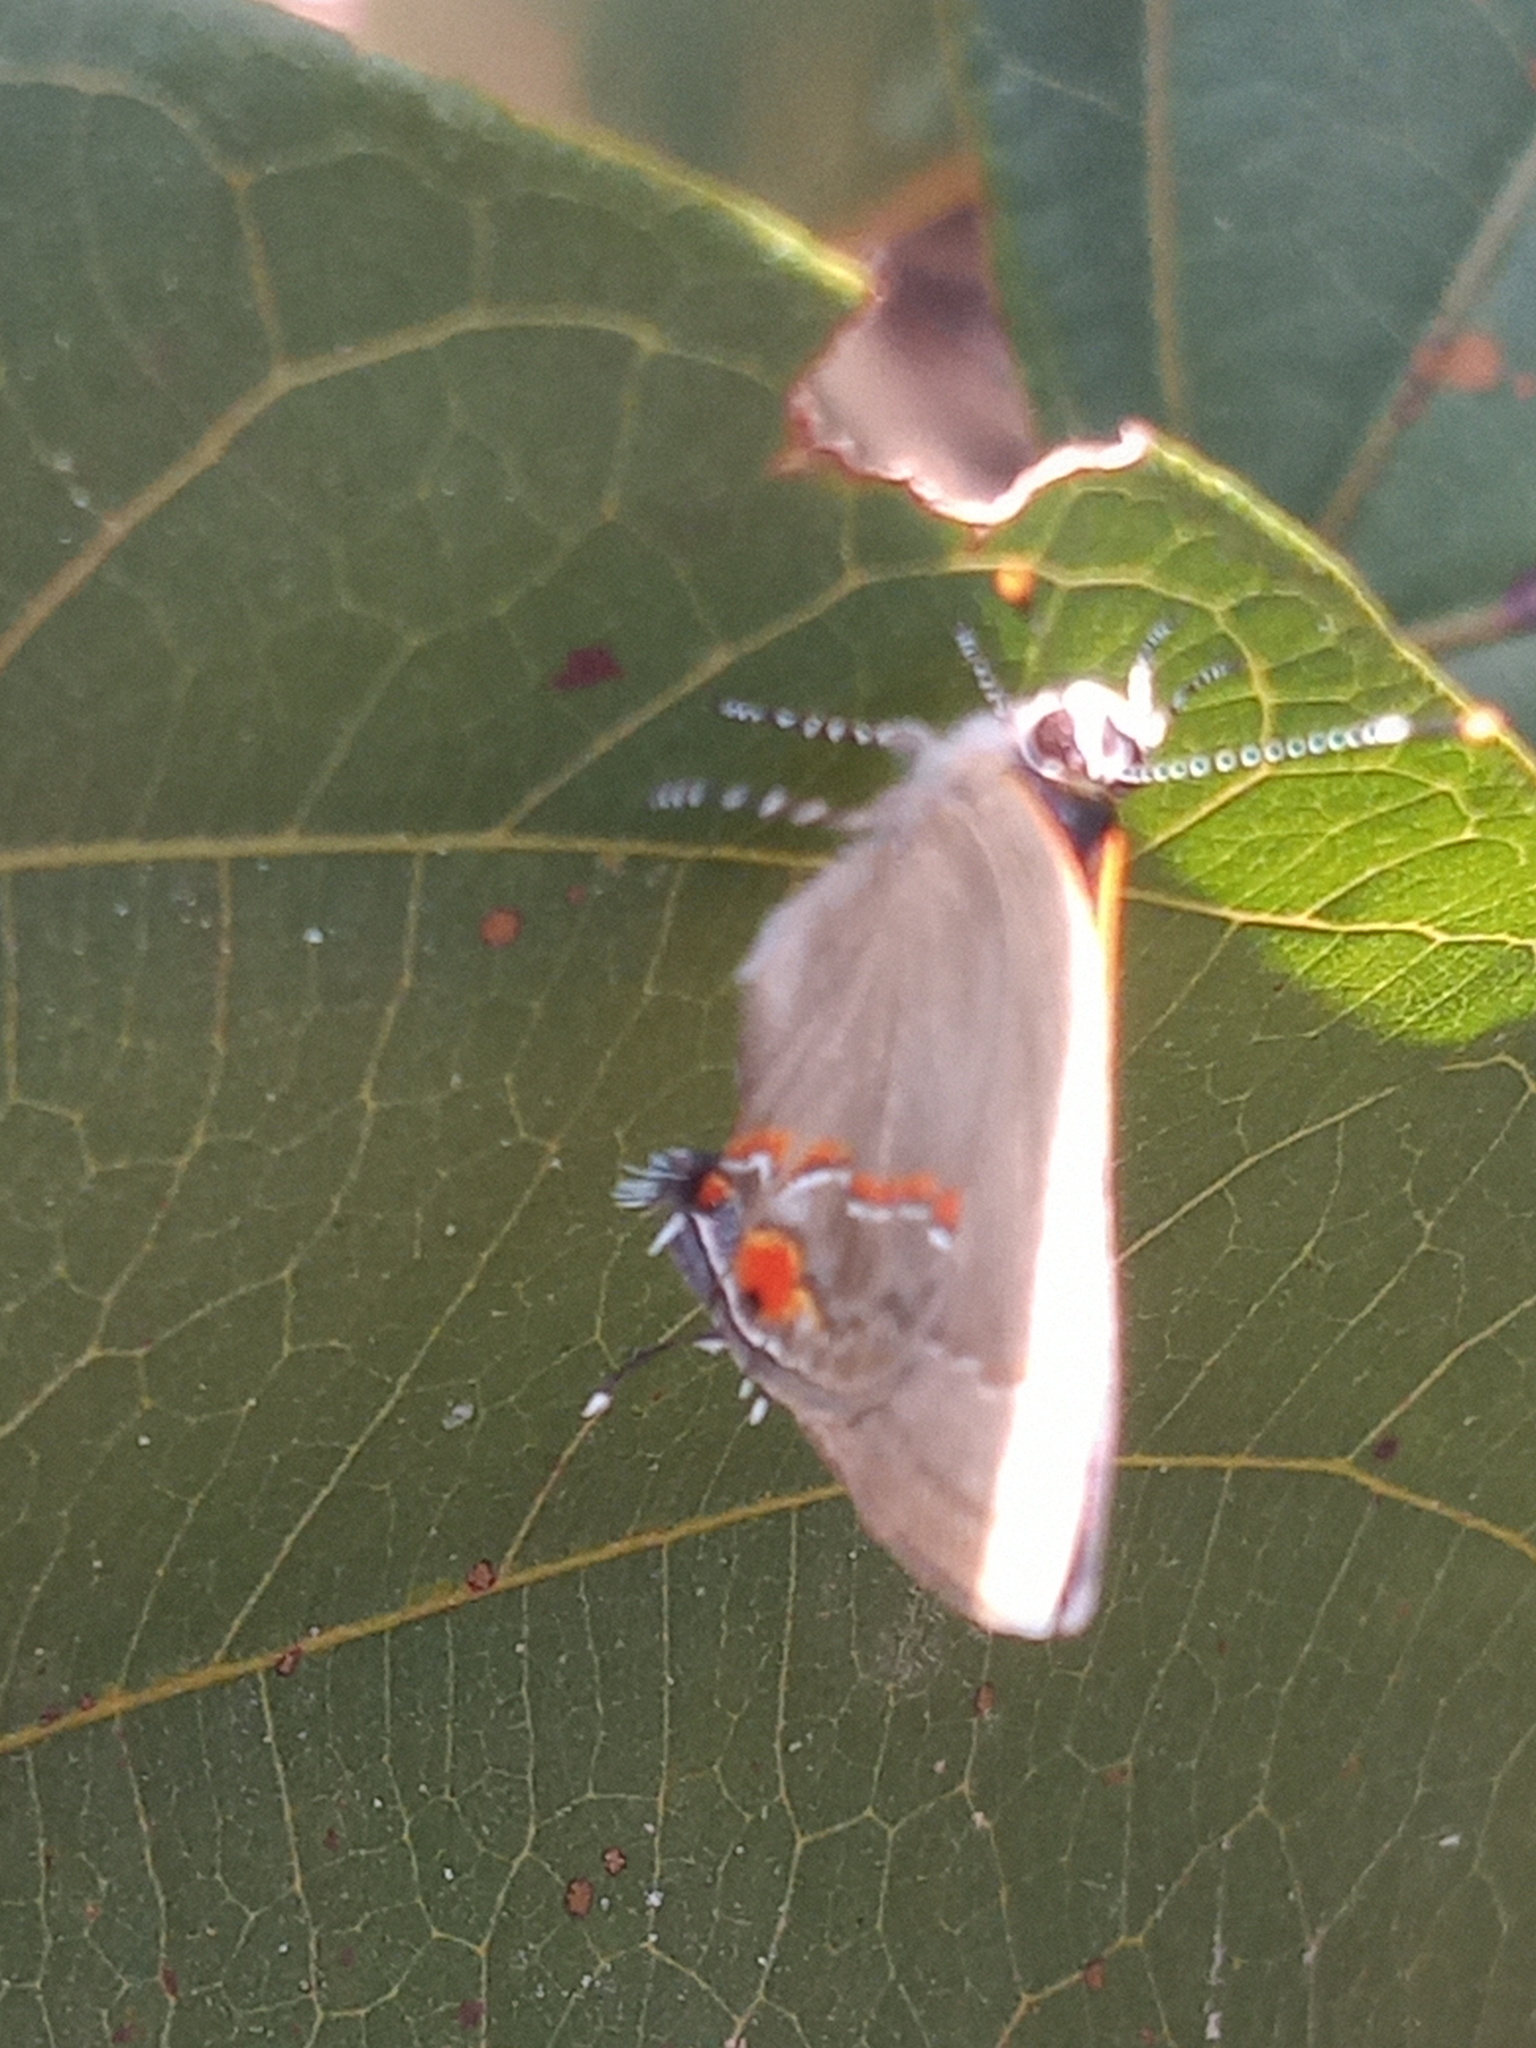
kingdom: Animalia
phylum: Arthropoda
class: Insecta
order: Lepidoptera
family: Lycaenidae
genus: Thecla
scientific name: Thecla syllis
